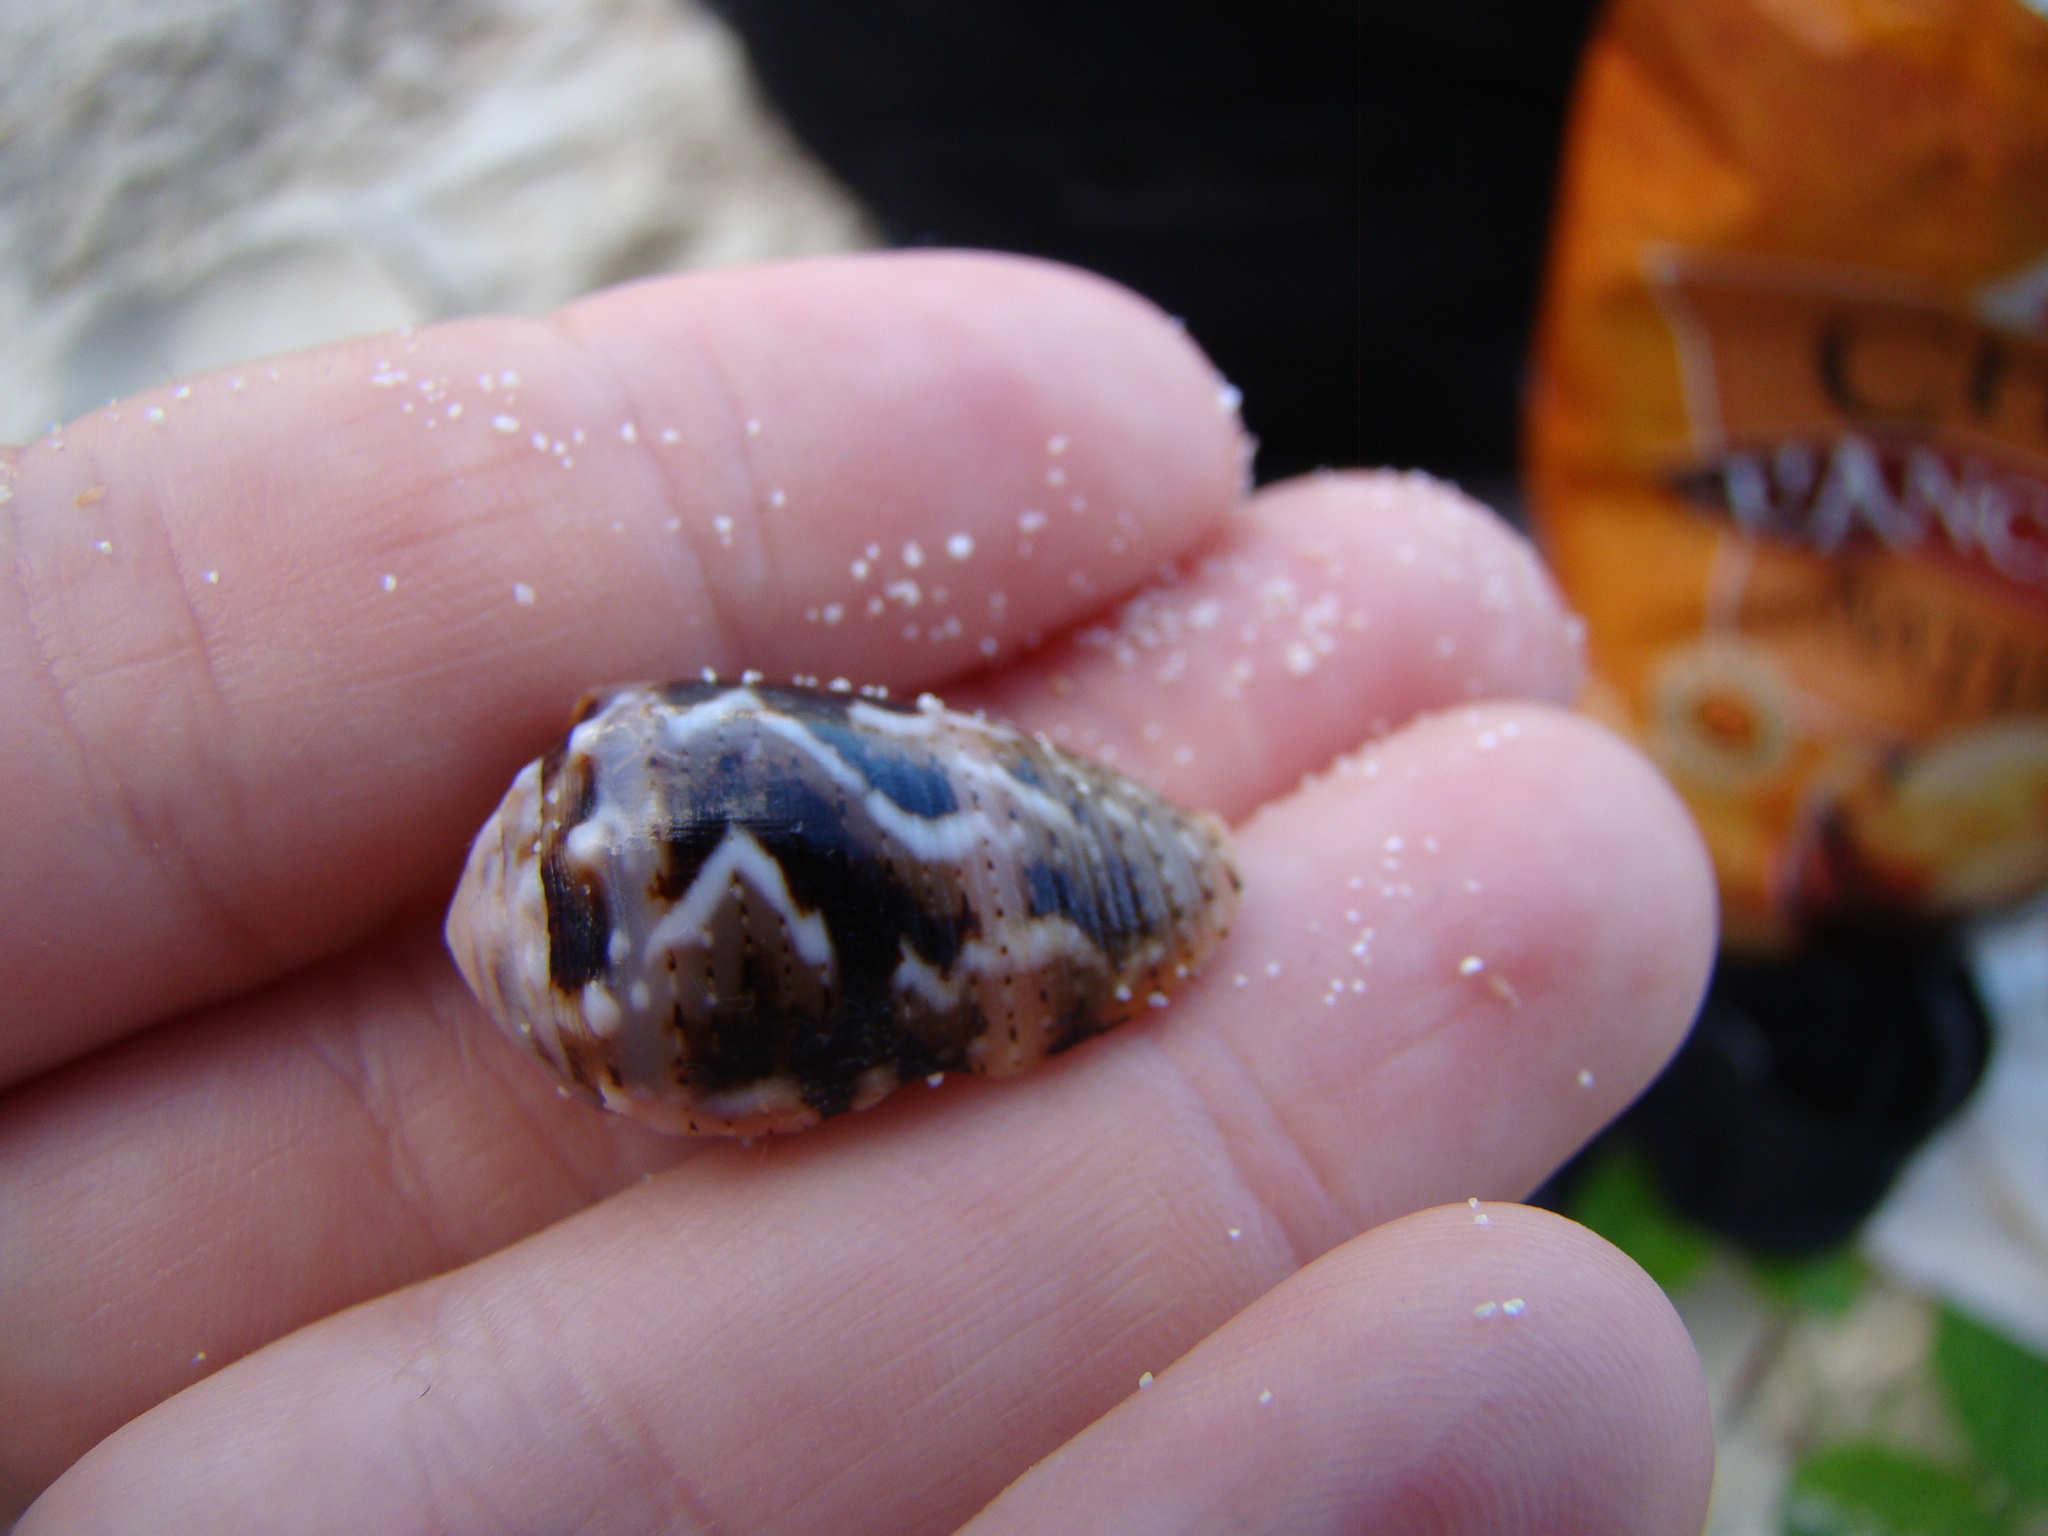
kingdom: Animalia
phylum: Mollusca
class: Gastropoda
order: Neogastropoda
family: Conidae
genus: Conus
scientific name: Conus coronatus
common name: Coronated cone
